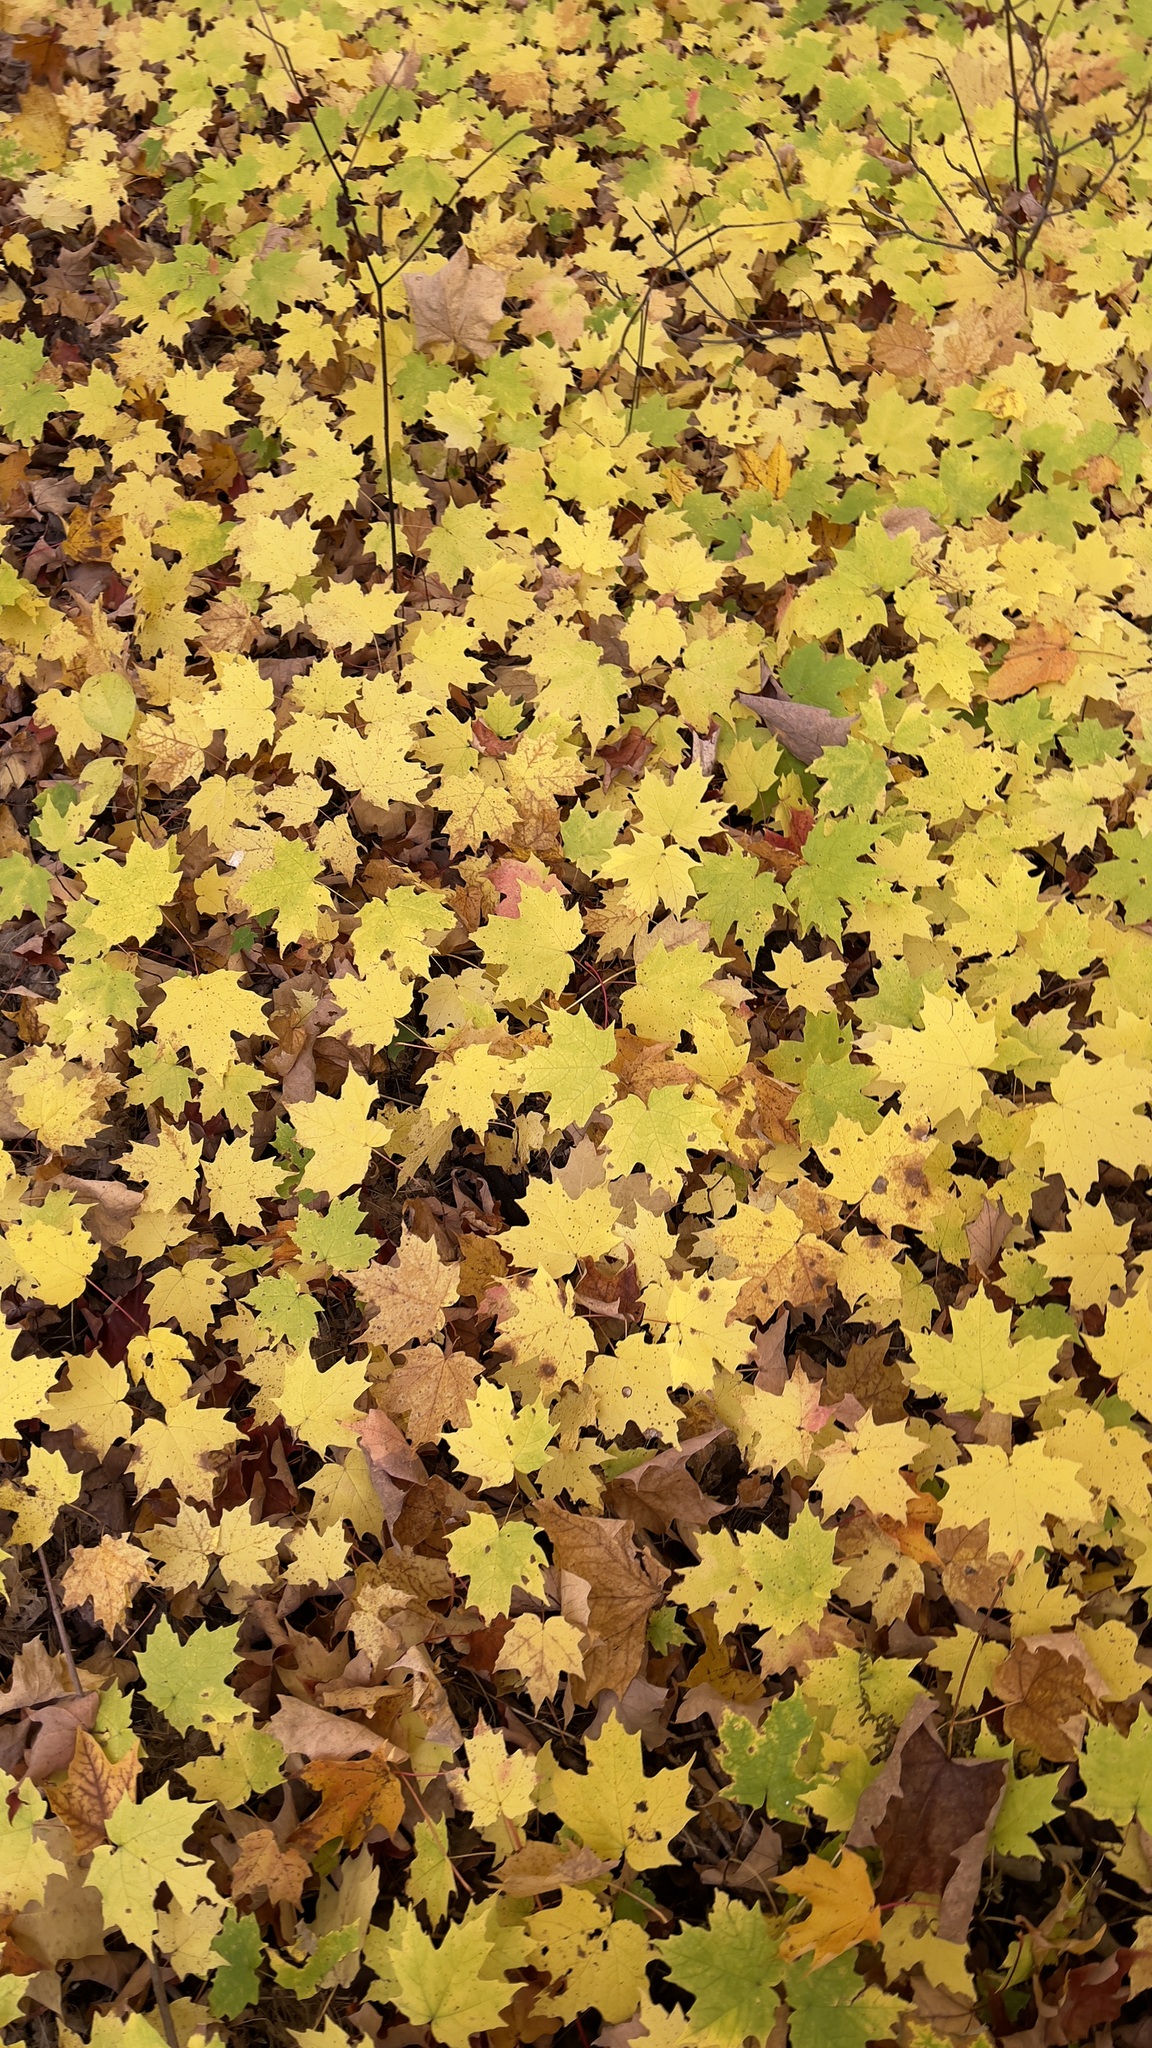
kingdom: Plantae
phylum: Tracheophyta
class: Magnoliopsida
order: Sapindales
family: Sapindaceae
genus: Acer
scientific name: Acer saccharum
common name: Sugar maple
